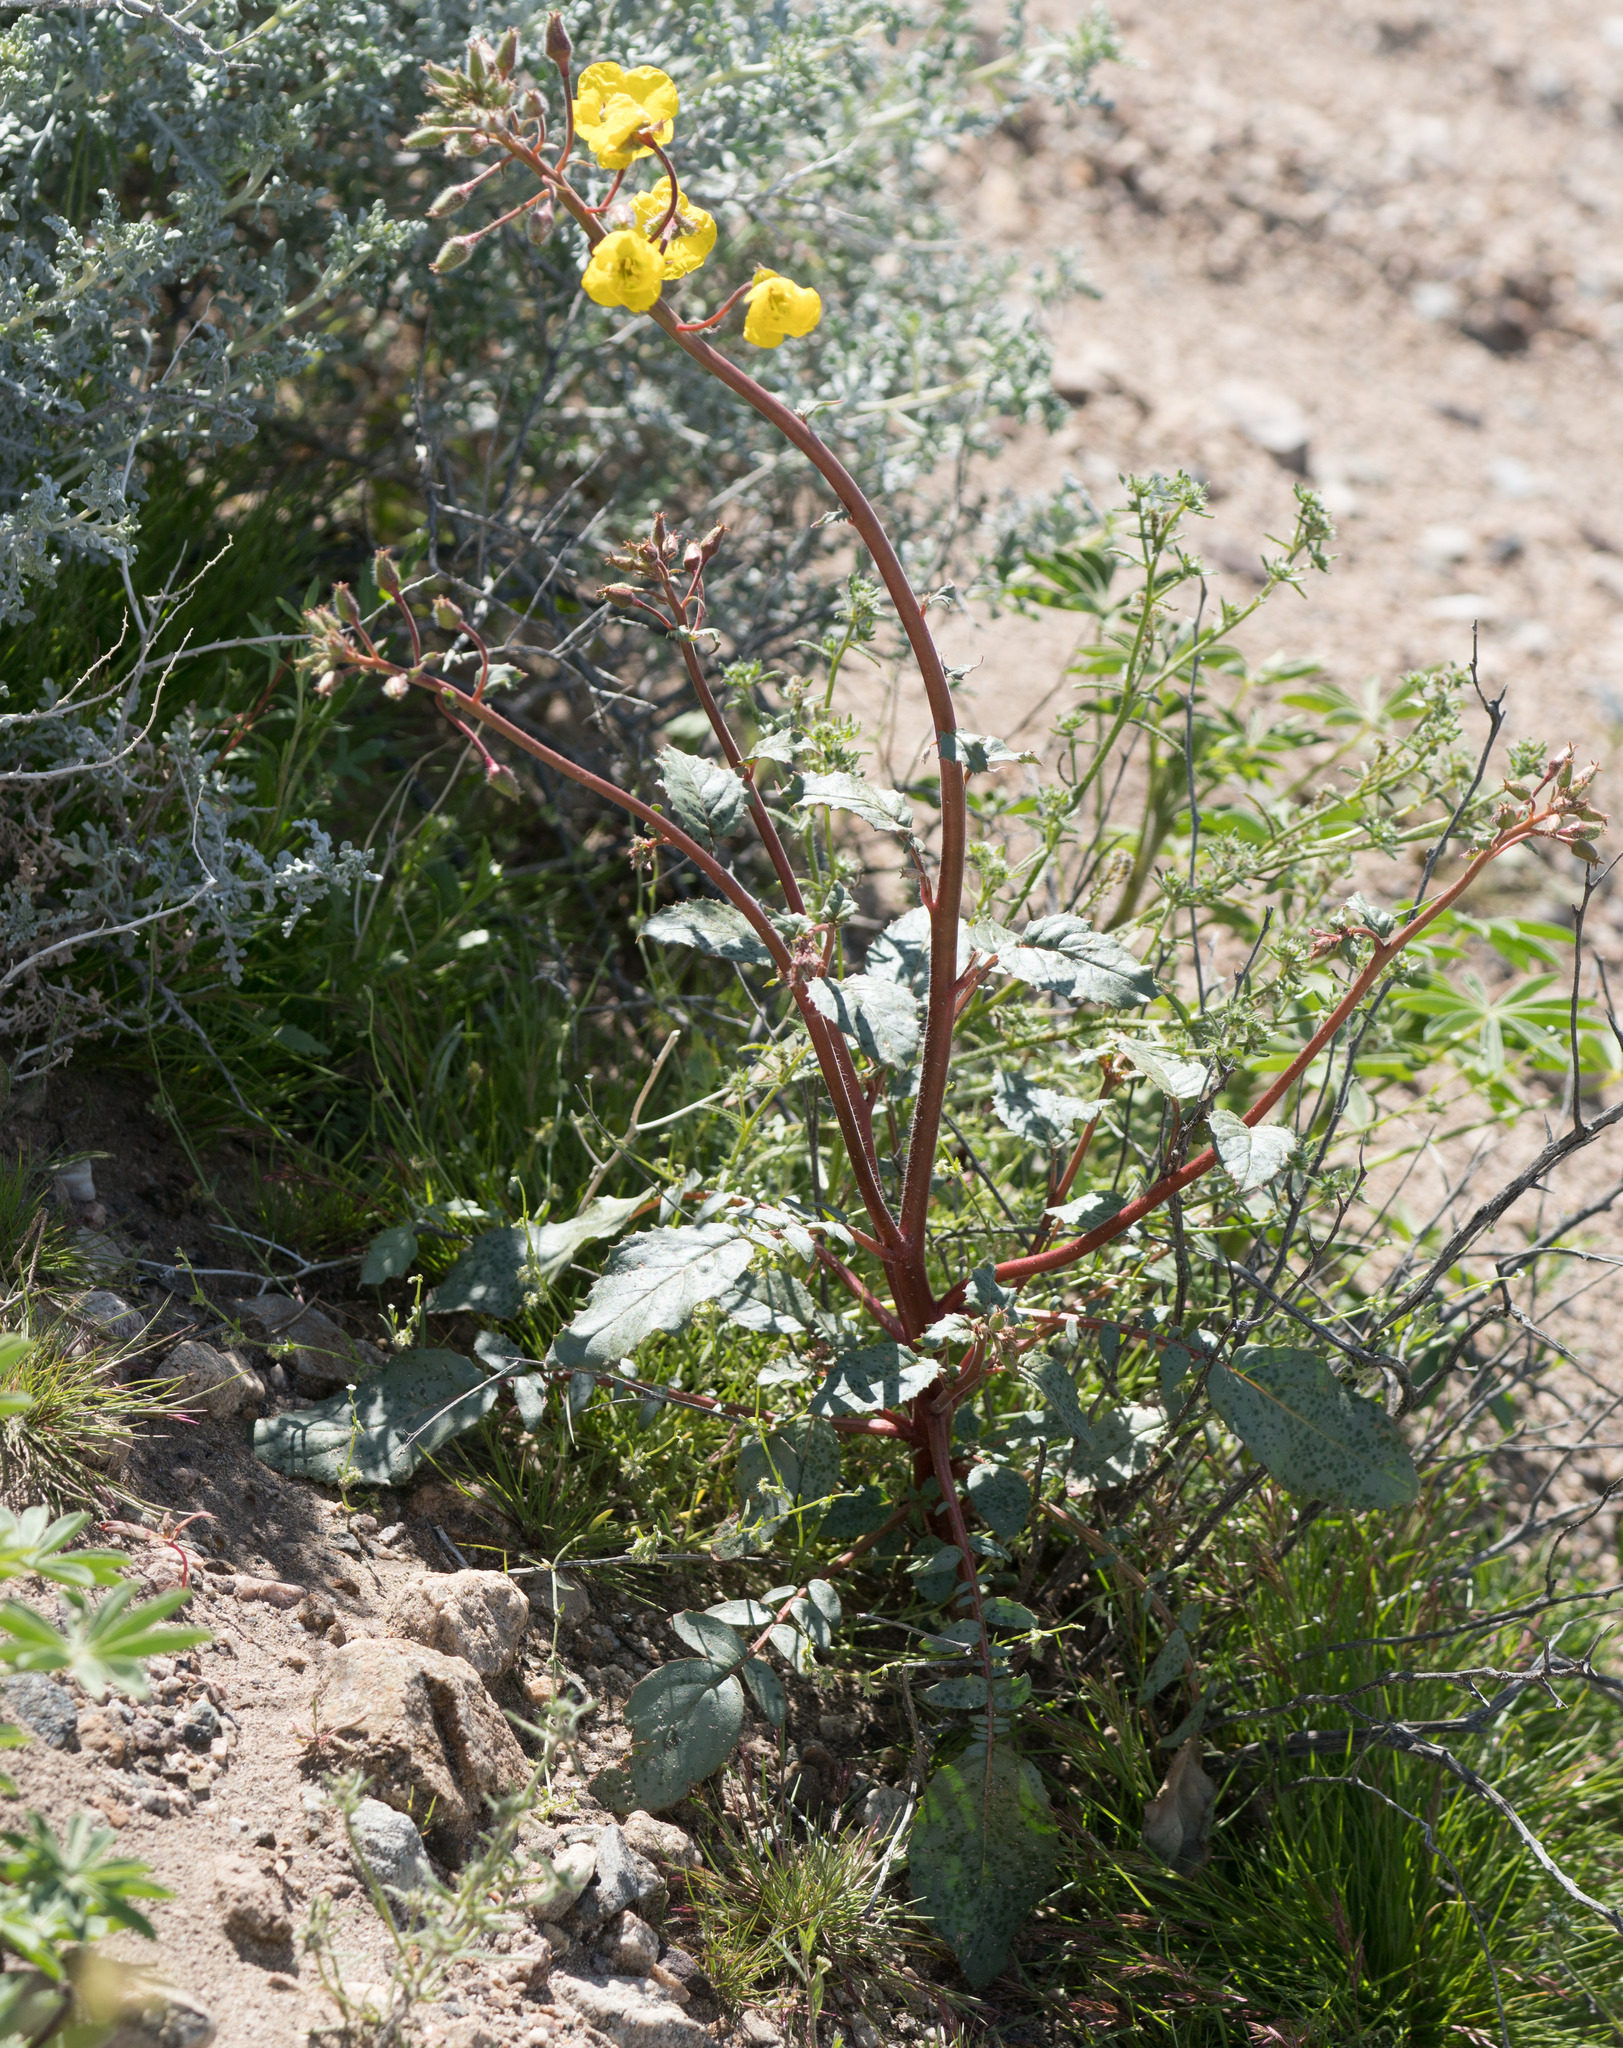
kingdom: Plantae
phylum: Tracheophyta
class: Magnoliopsida
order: Myrtales
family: Onagraceae
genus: Chylismia
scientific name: Chylismia brevipes
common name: Yellow cups
